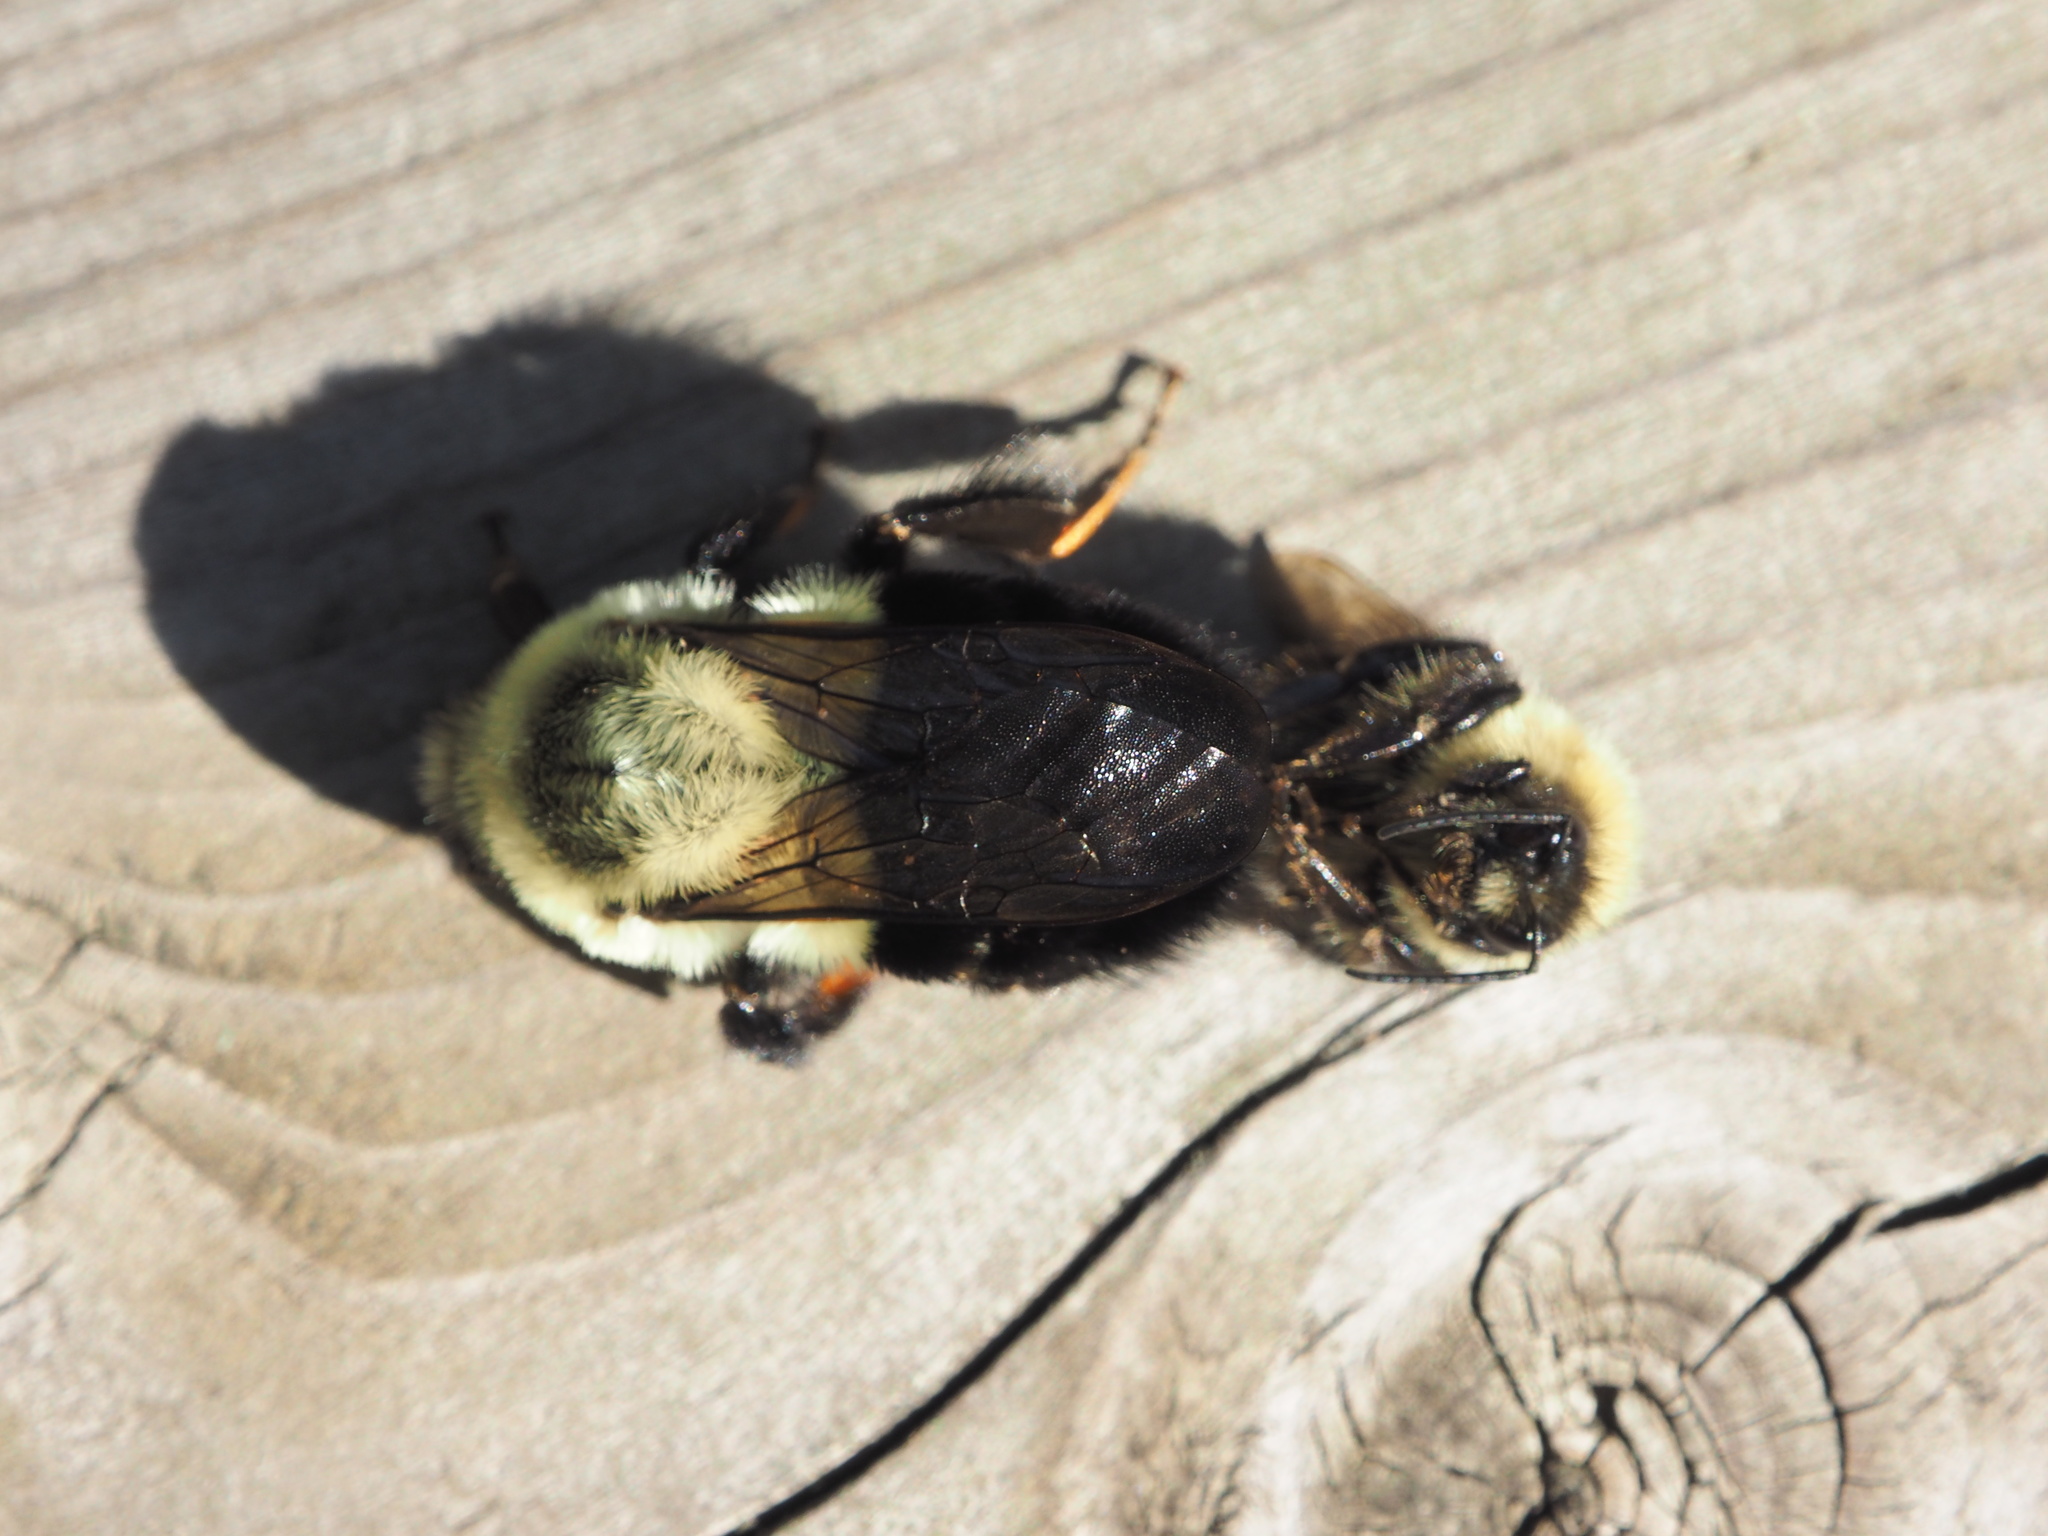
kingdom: Animalia
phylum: Arthropoda
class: Insecta
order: Hymenoptera
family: Apidae
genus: Bombus
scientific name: Bombus impatiens
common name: Common eastern bumble bee
